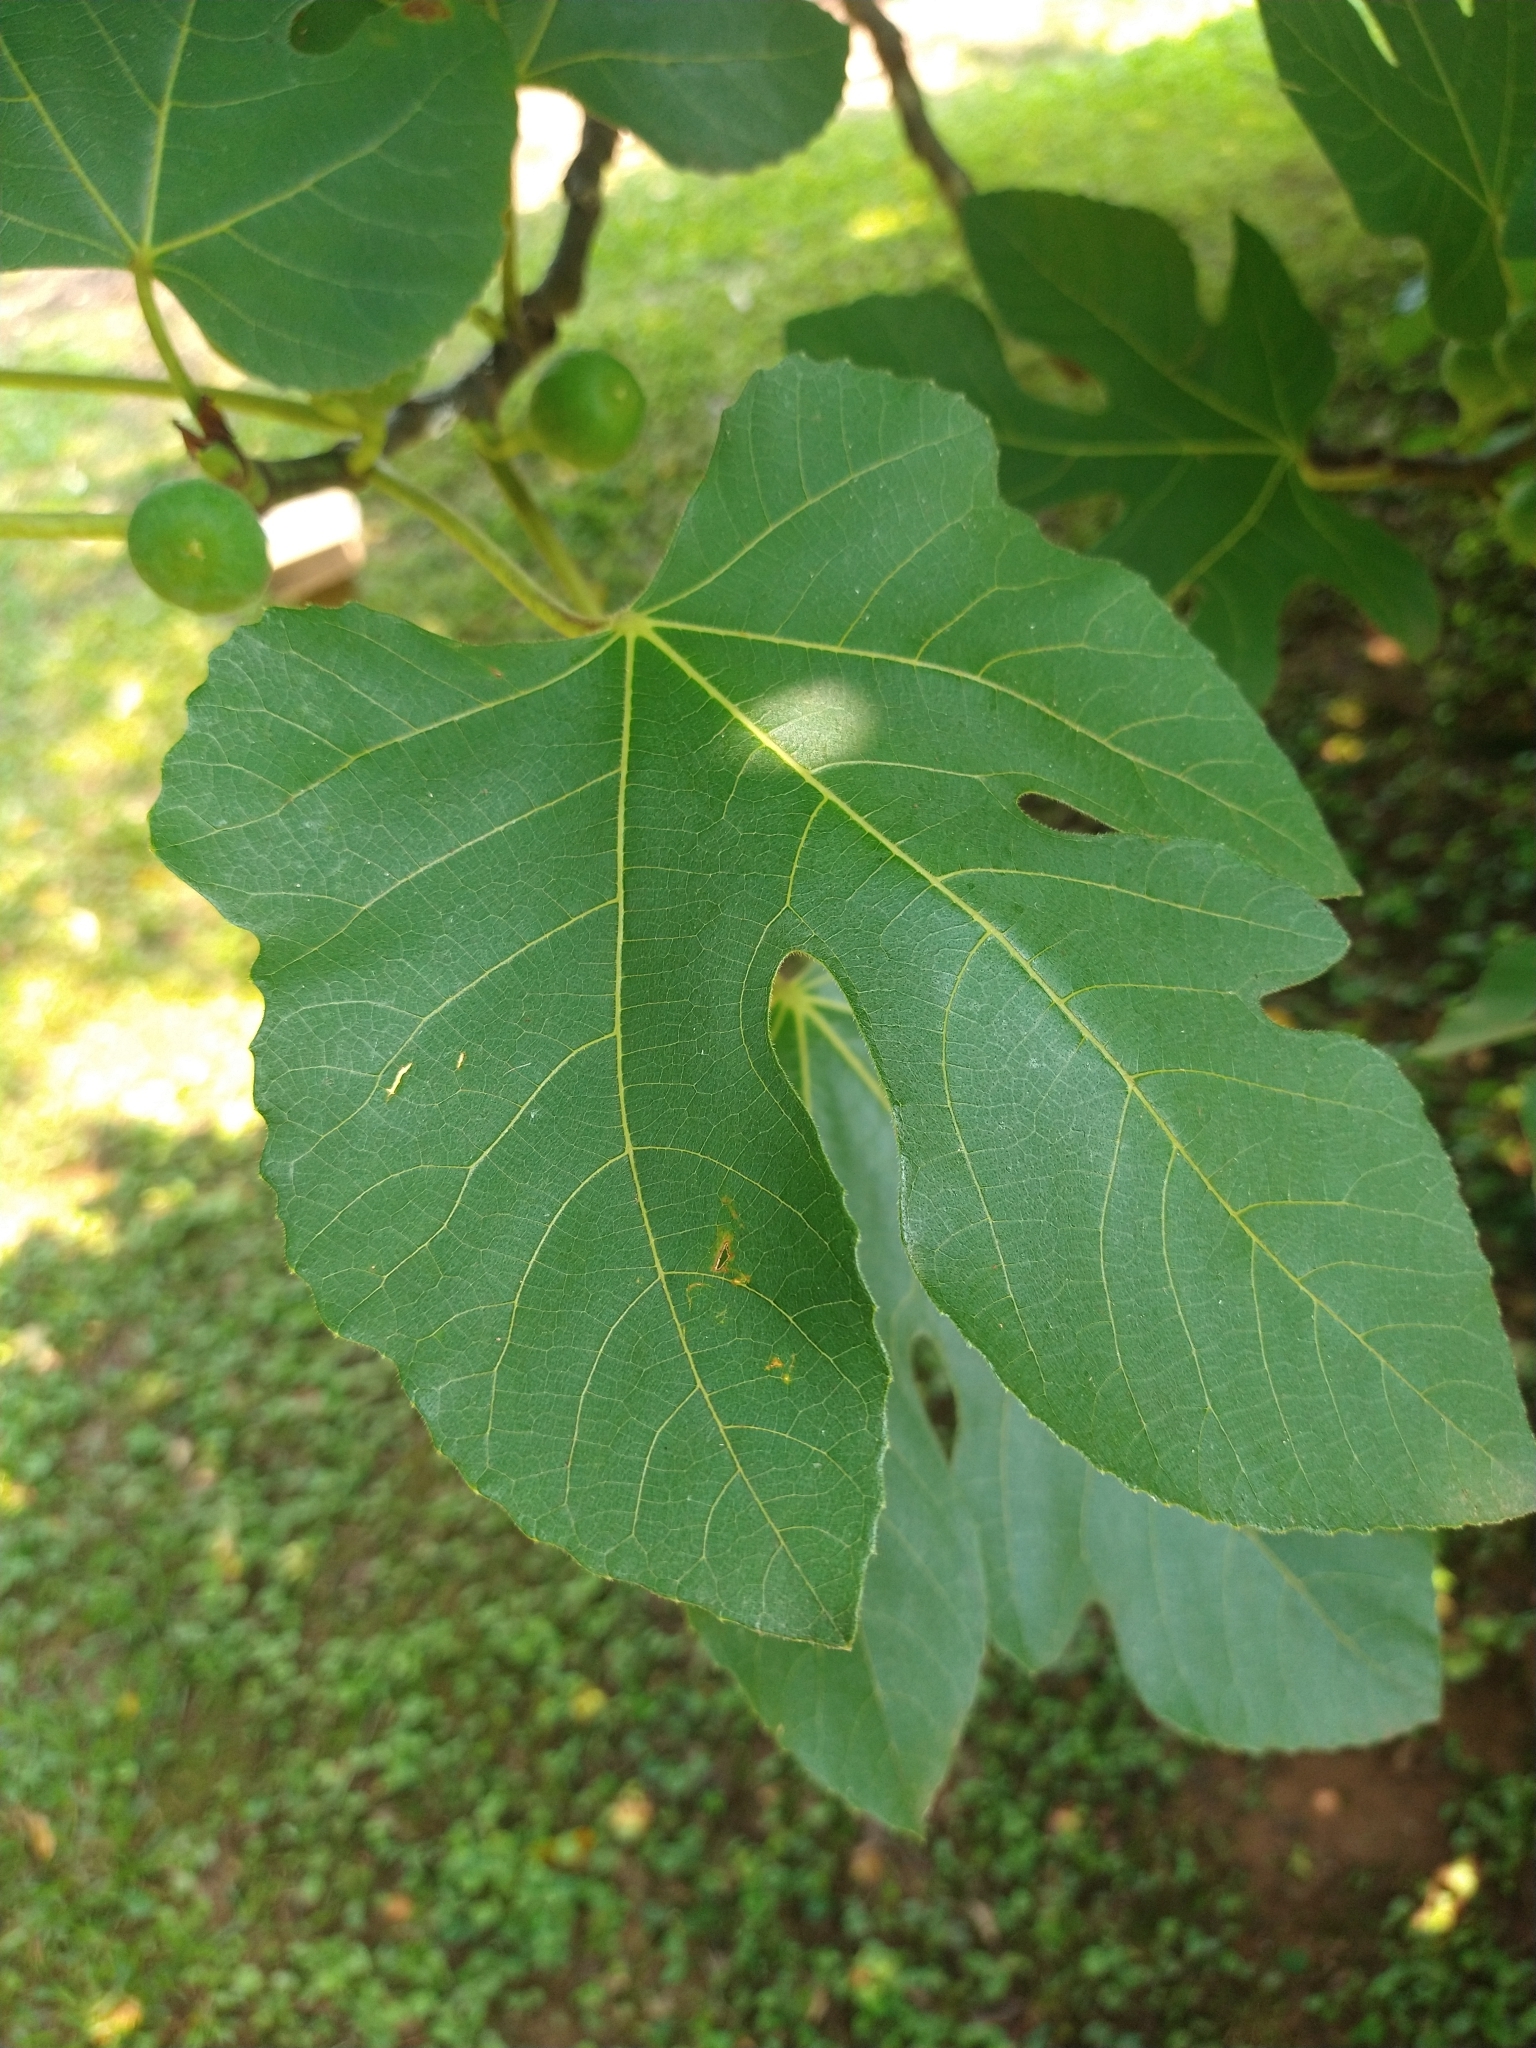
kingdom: Plantae
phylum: Tracheophyta
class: Magnoliopsida
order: Rosales
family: Moraceae
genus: Ficus
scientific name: Ficus carica
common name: Fig
